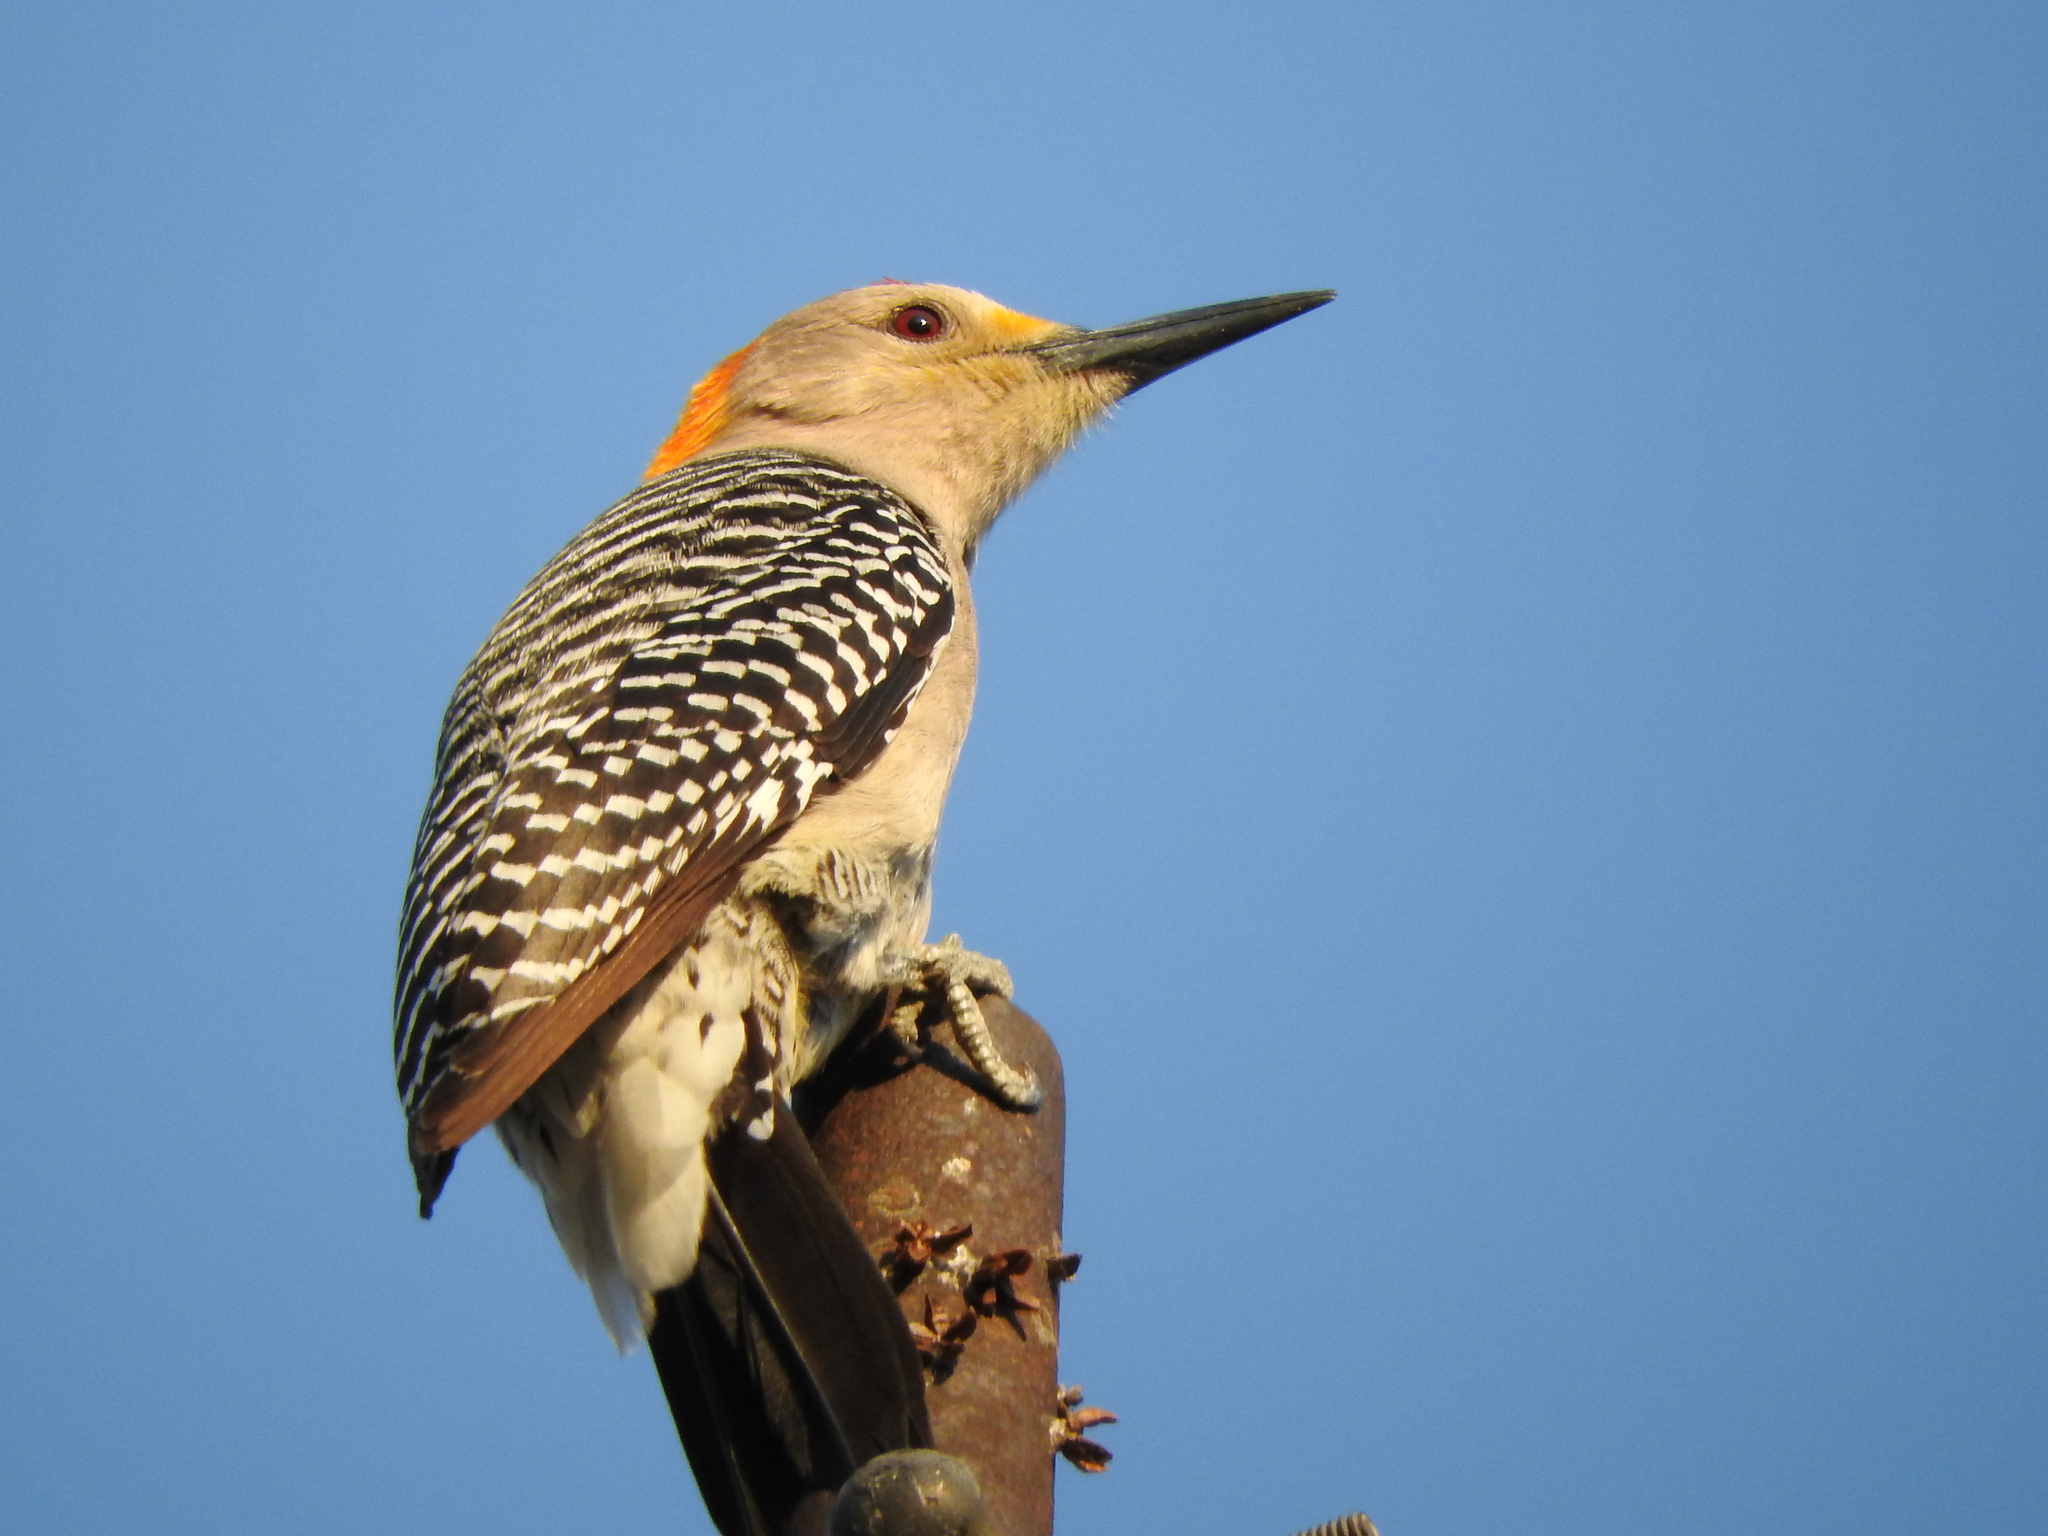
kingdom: Animalia
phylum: Chordata
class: Aves
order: Piciformes
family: Picidae
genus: Melanerpes
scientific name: Melanerpes aurifrons
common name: Golden-fronted woodpecker
